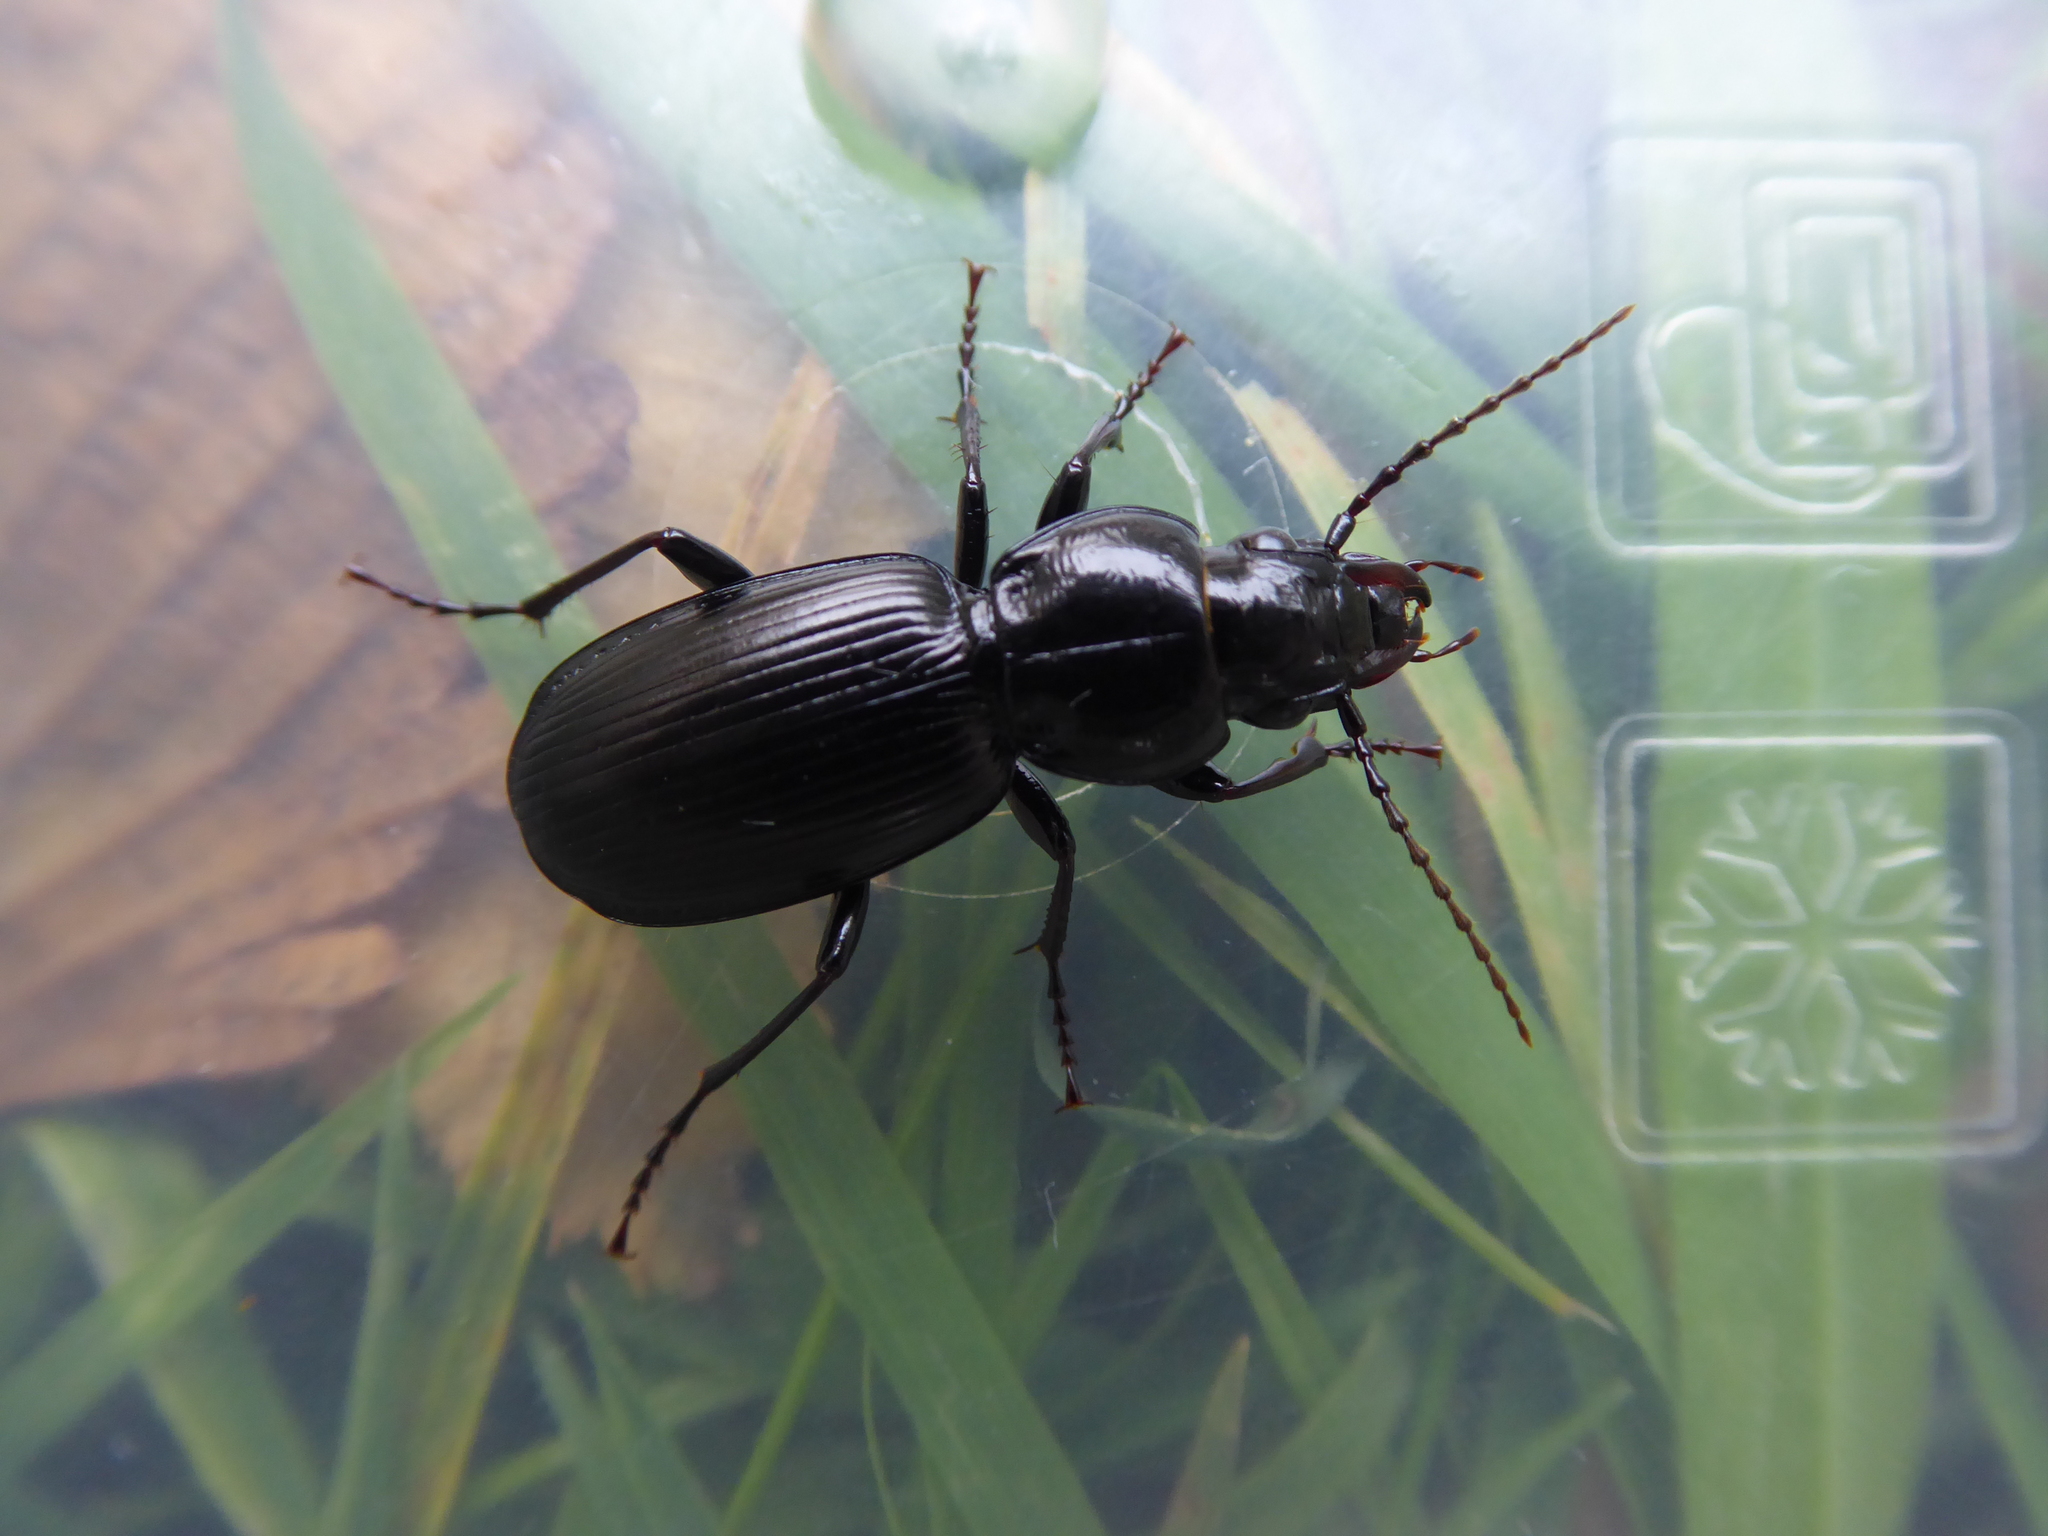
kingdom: Animalia
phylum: Arthropoda
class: Insecta
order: Coleoptera
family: Carabidae
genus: Pterostichus
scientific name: Pterostichus madidus
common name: Black clock
